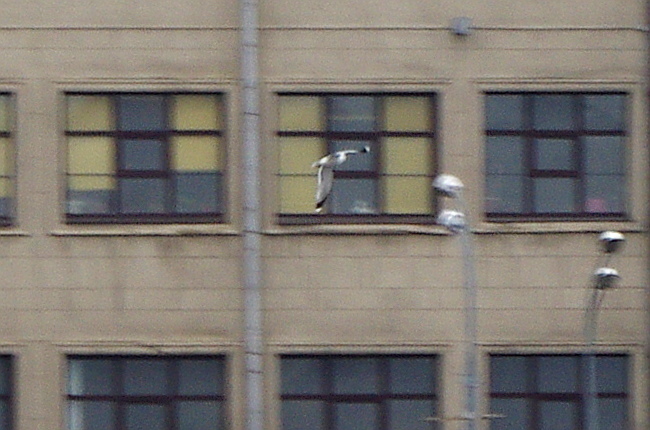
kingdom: Animalia
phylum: Chordata
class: Aves
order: Charadriiformes
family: Laridae
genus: Larus
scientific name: Larus canus
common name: Mew gull
